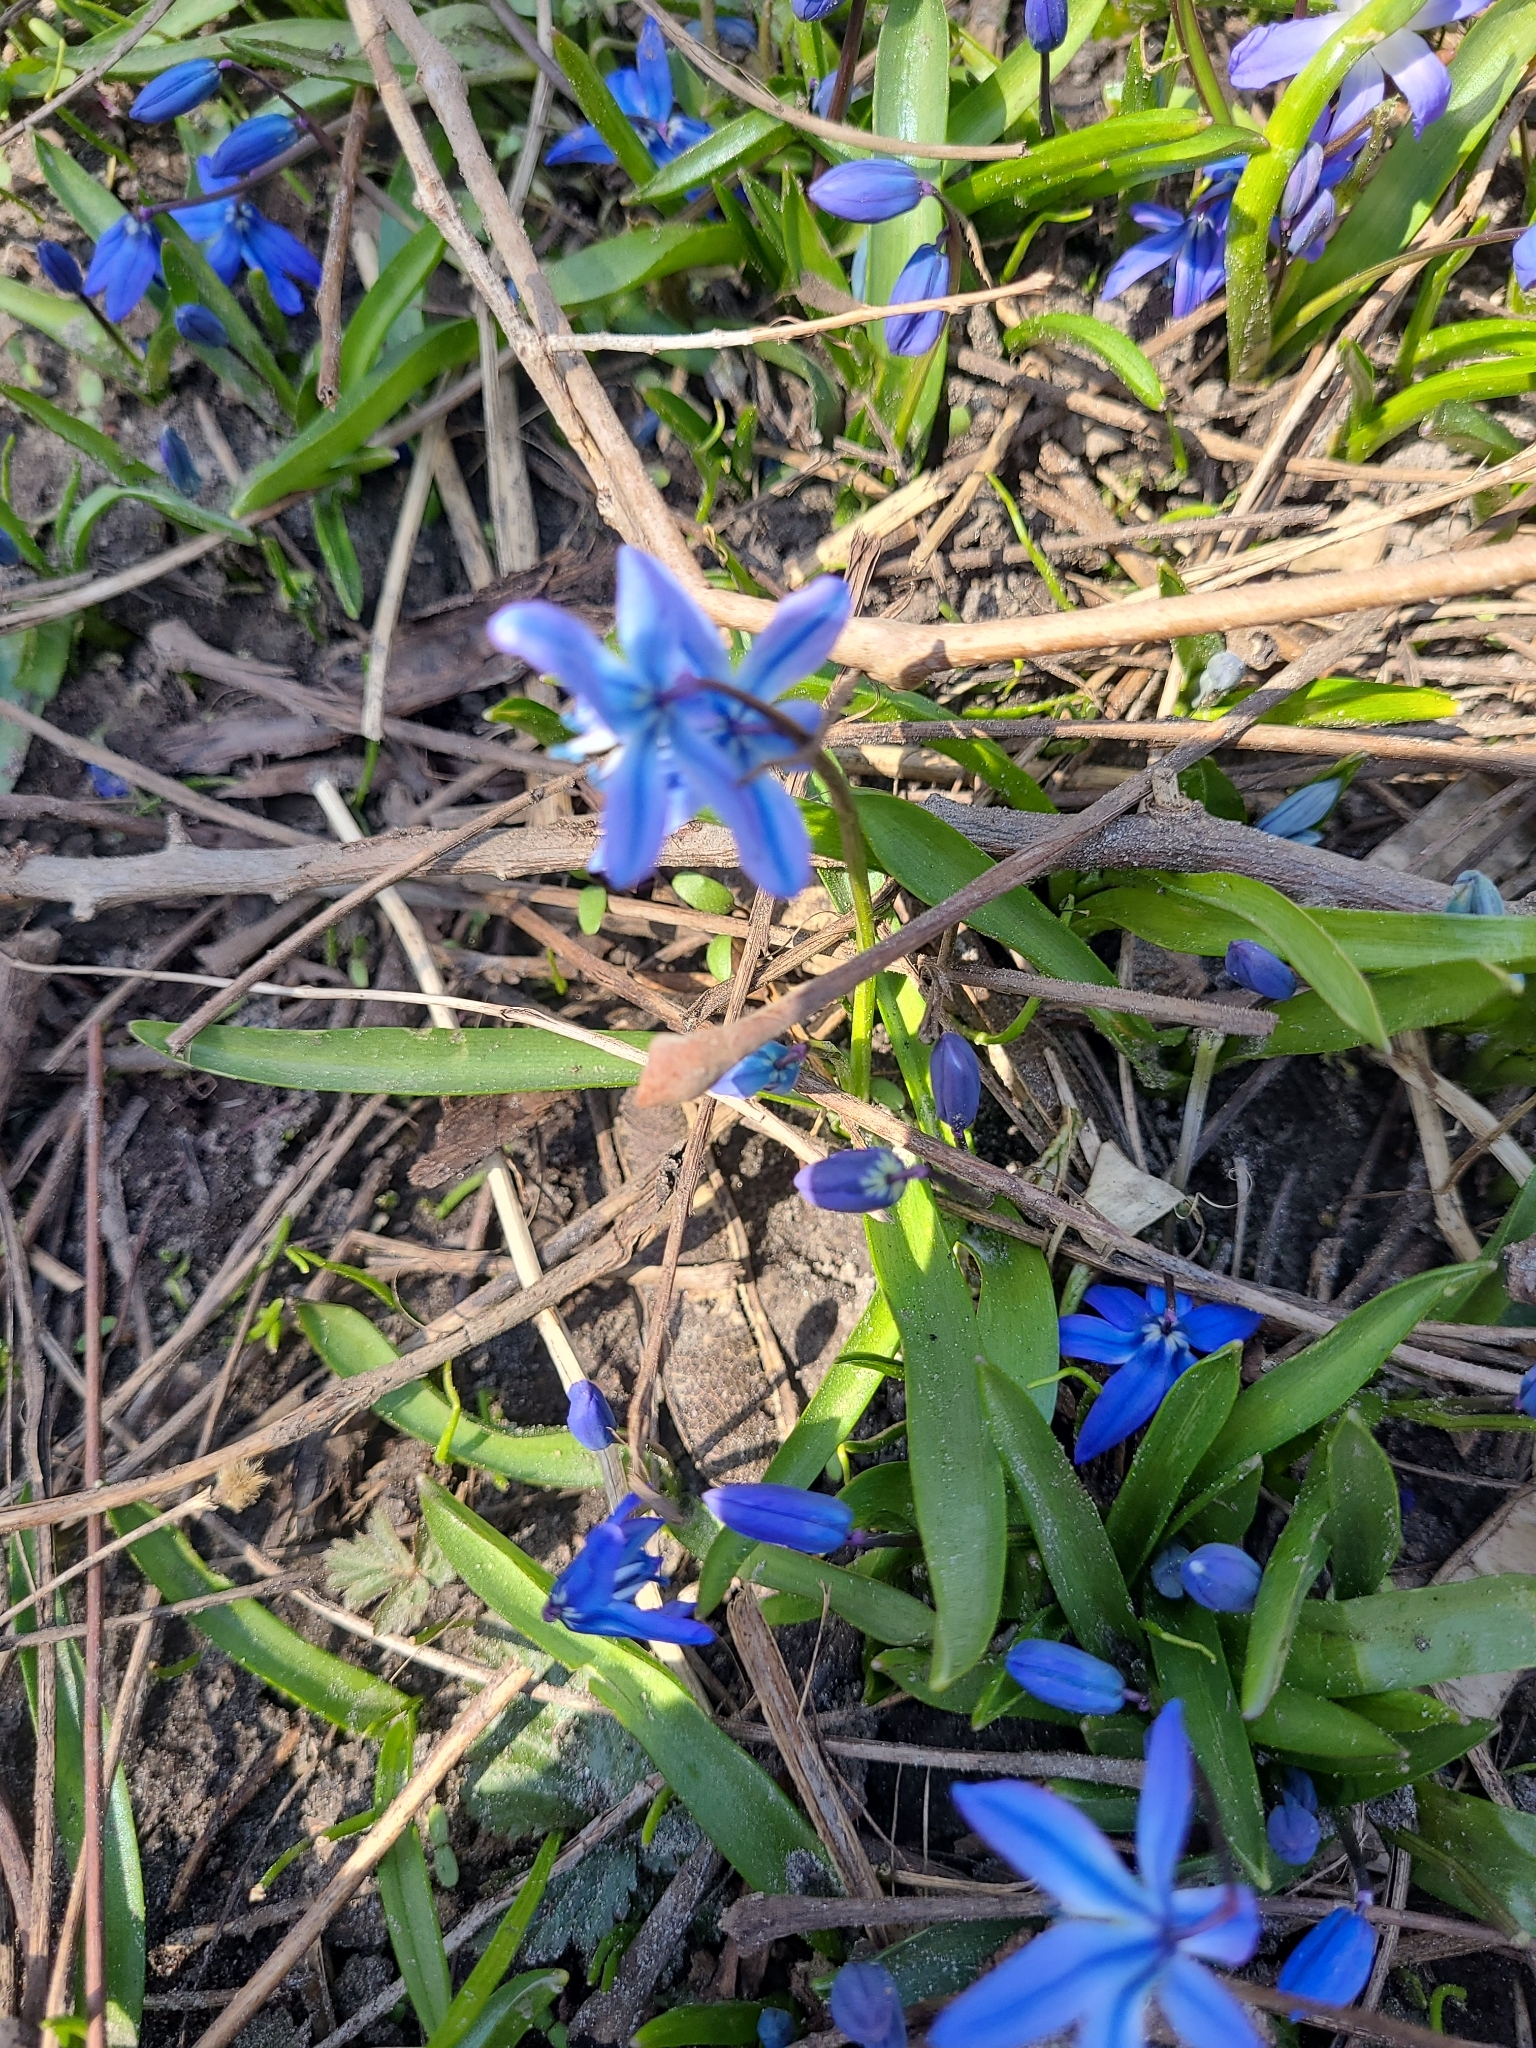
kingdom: Plantae
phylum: Tracheophyta
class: Liliopsida
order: Asparagales
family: Asparagaceae
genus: Scilla
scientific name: Scilla siberica
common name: Siberian squill
